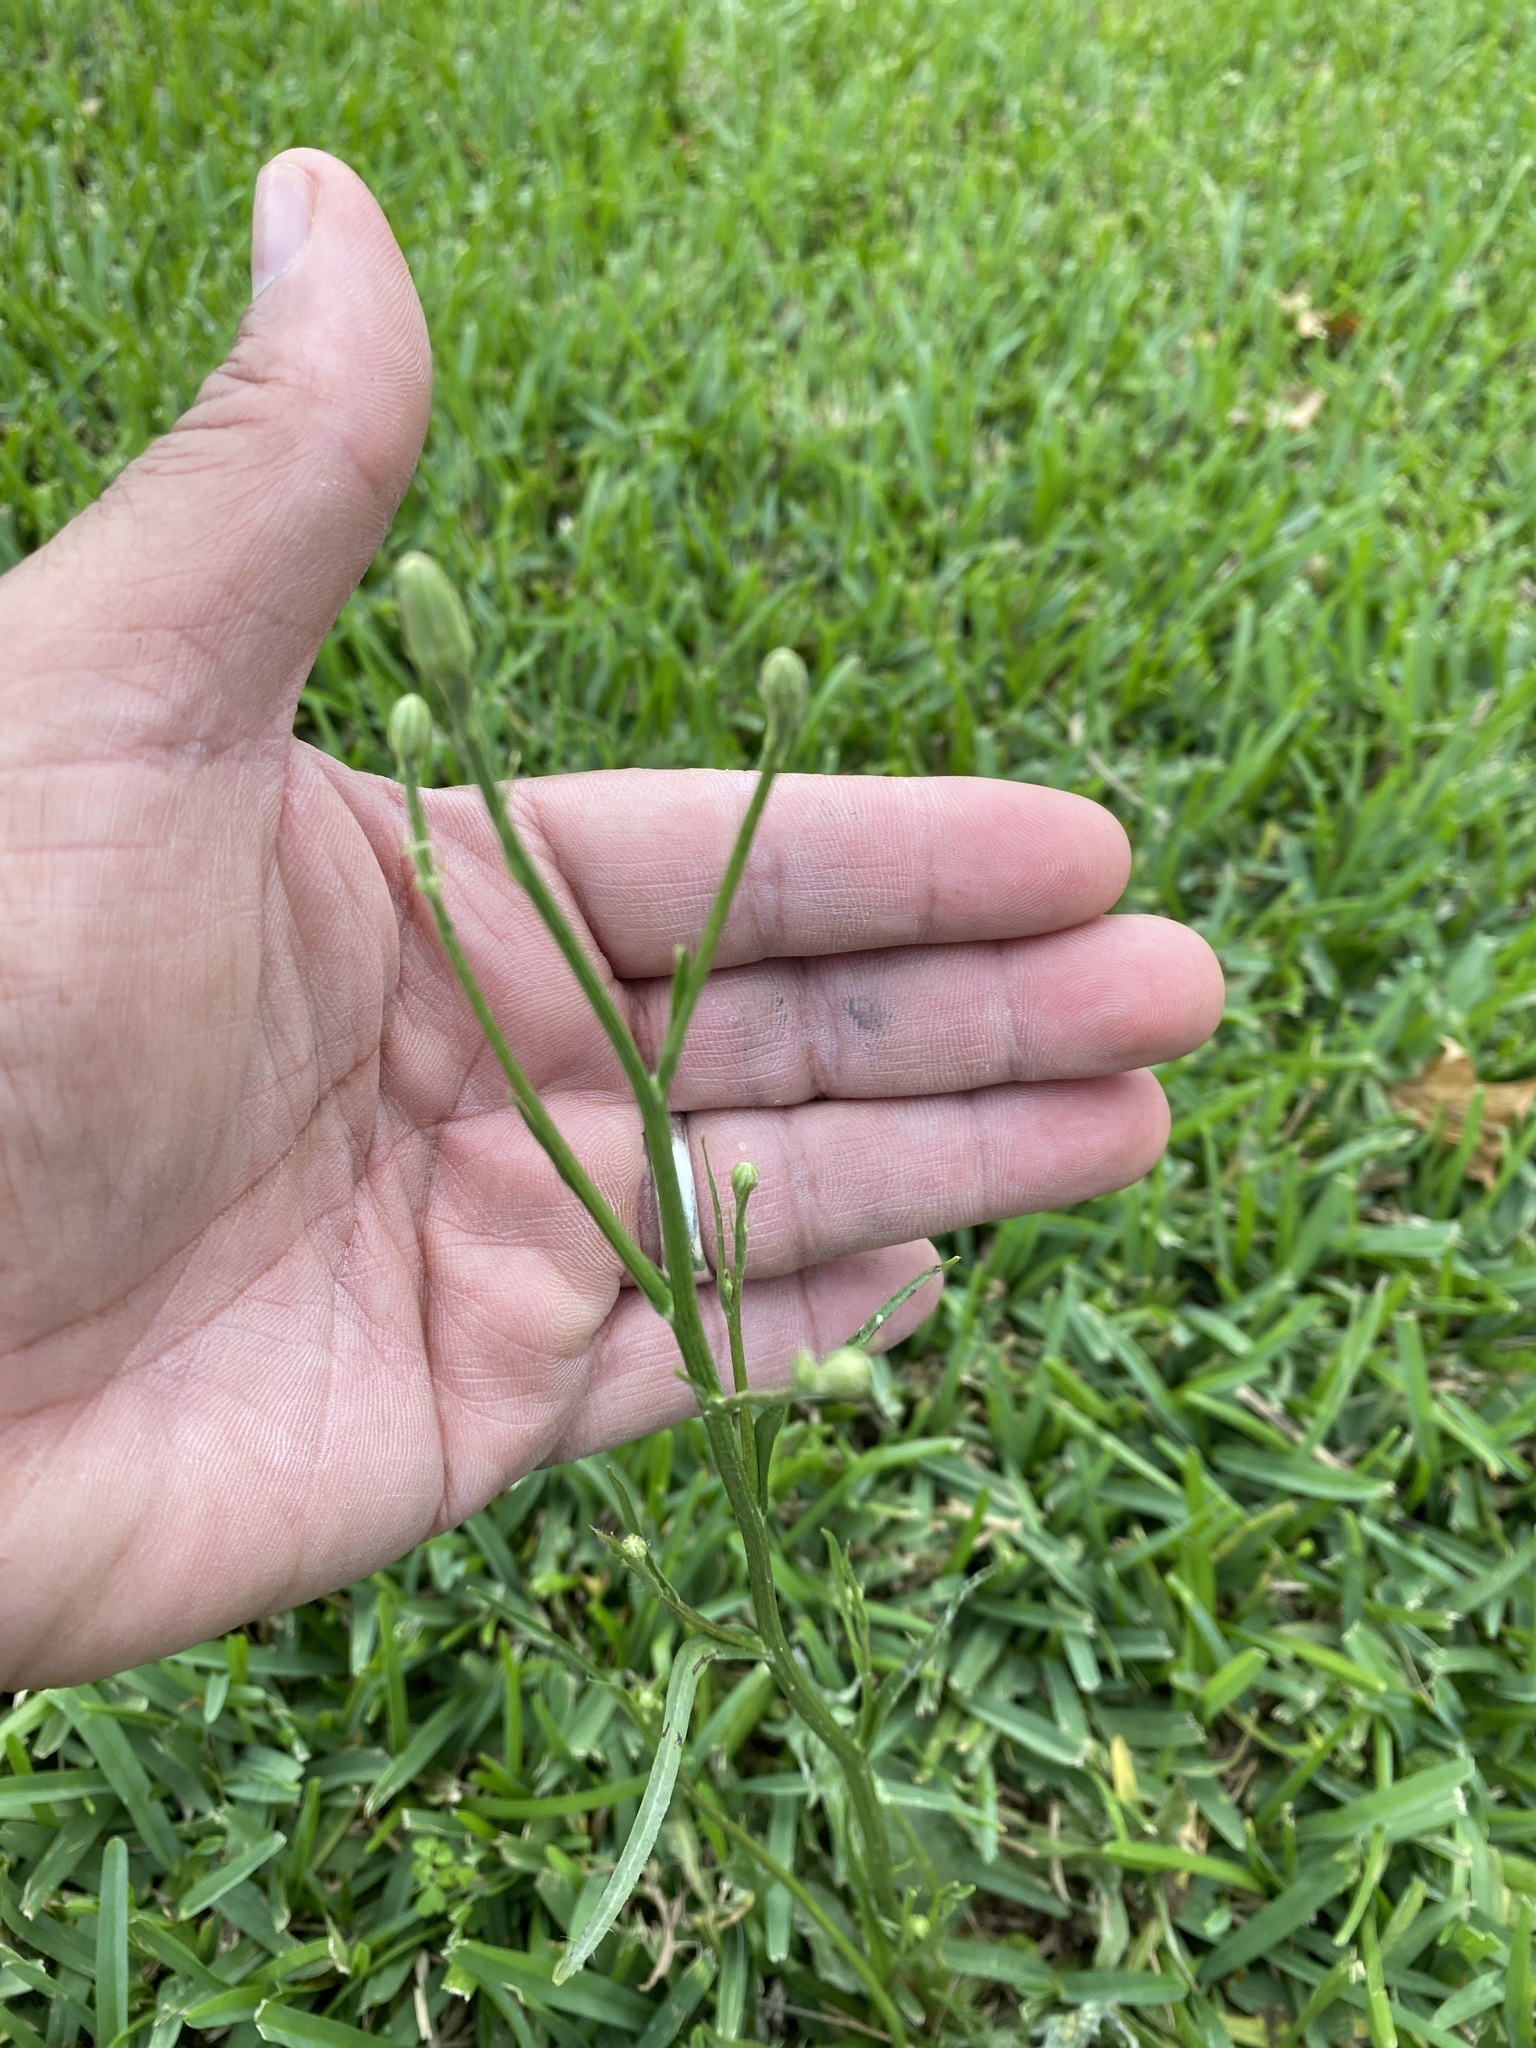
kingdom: Plantae
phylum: Tracheophyta
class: Magnoliopsida
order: Asterales
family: Asteraceae
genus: Hypochaeris
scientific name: Hypochaeris albiflora
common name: White flatweed
